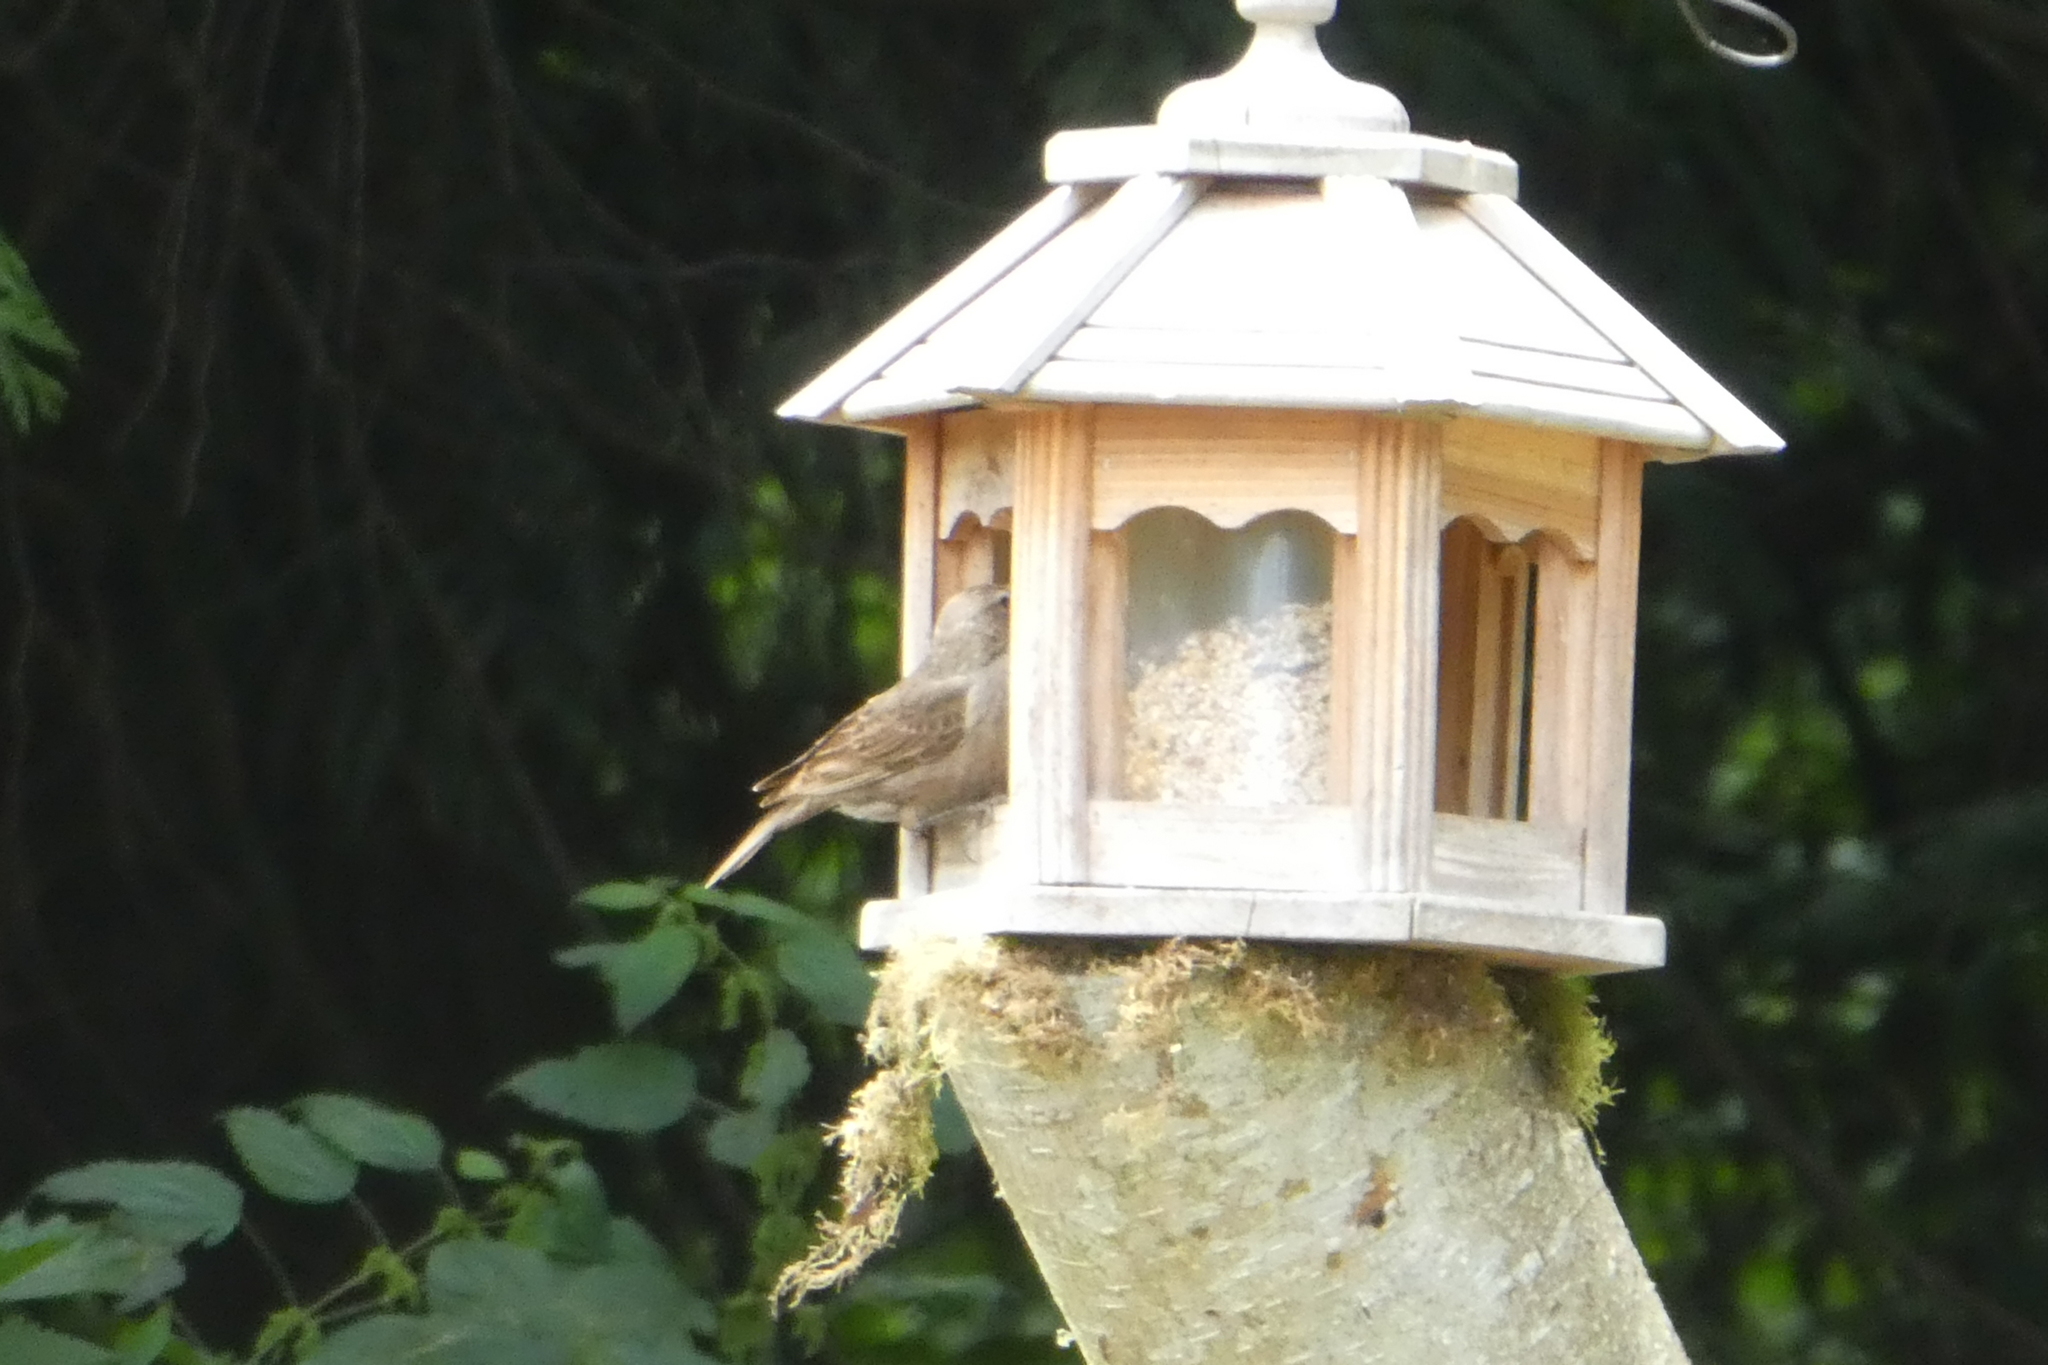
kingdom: Animalia
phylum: Chordata
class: Aves
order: Passeriformes
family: Icteridae
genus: Molothrus
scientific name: Molothrus ater
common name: Brown-headed cowbird
